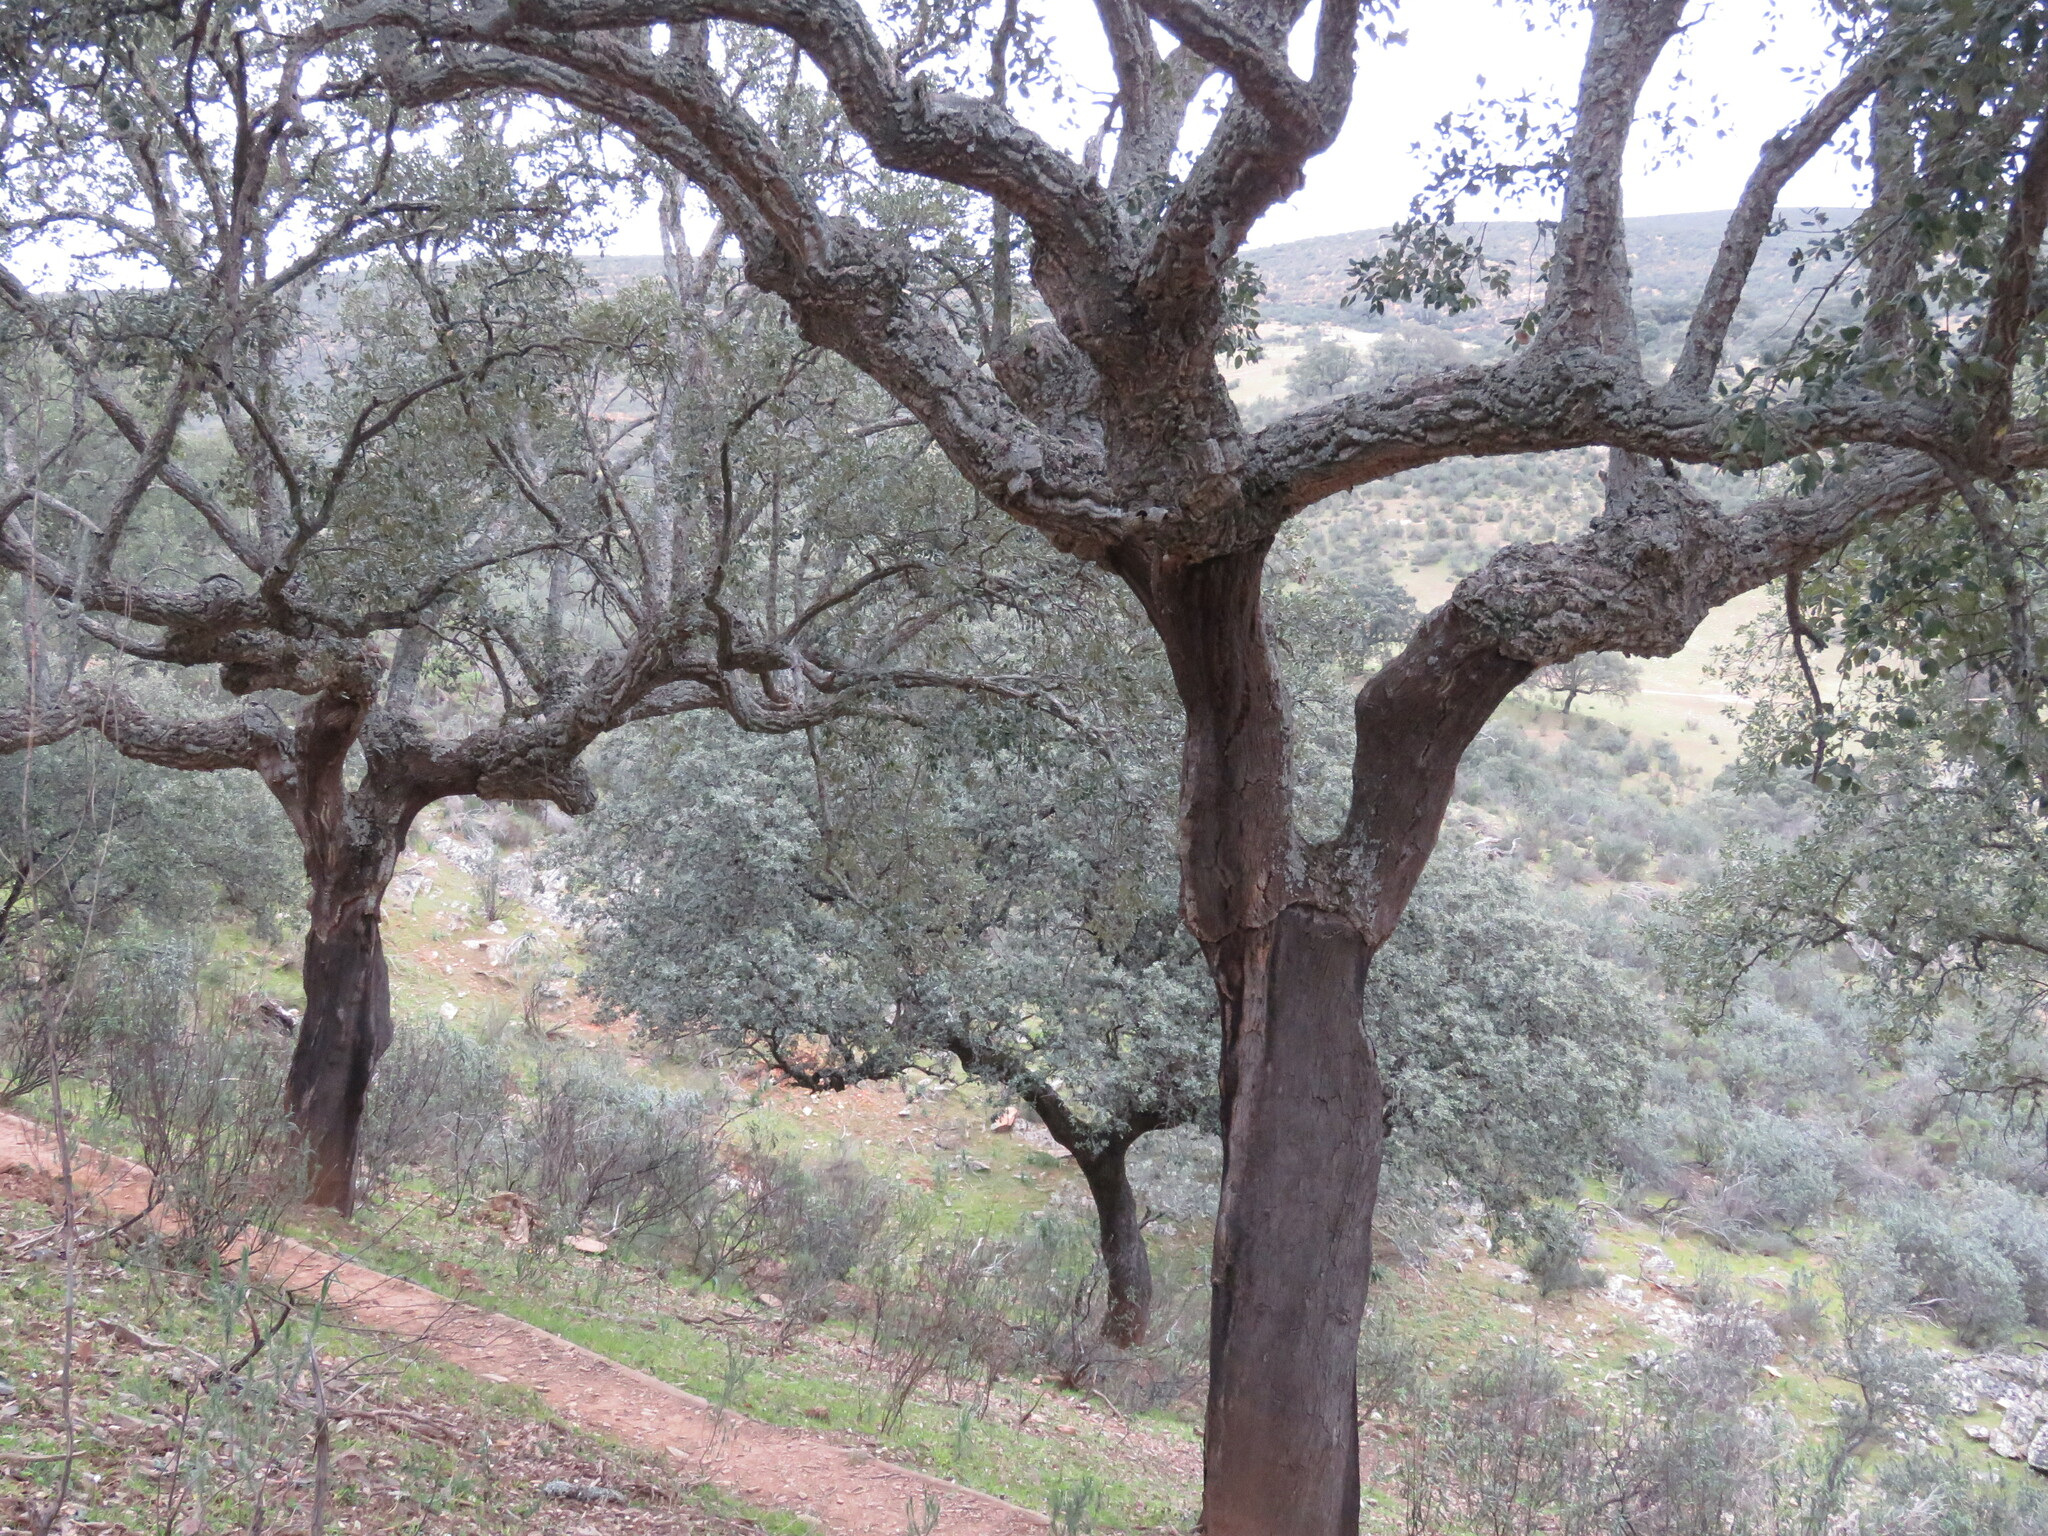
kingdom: Plantae
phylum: Tracheophyta
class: Magnoliopsida
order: Fagales
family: Fagaceae
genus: Quercus
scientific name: Quercus suber
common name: Cork oak
